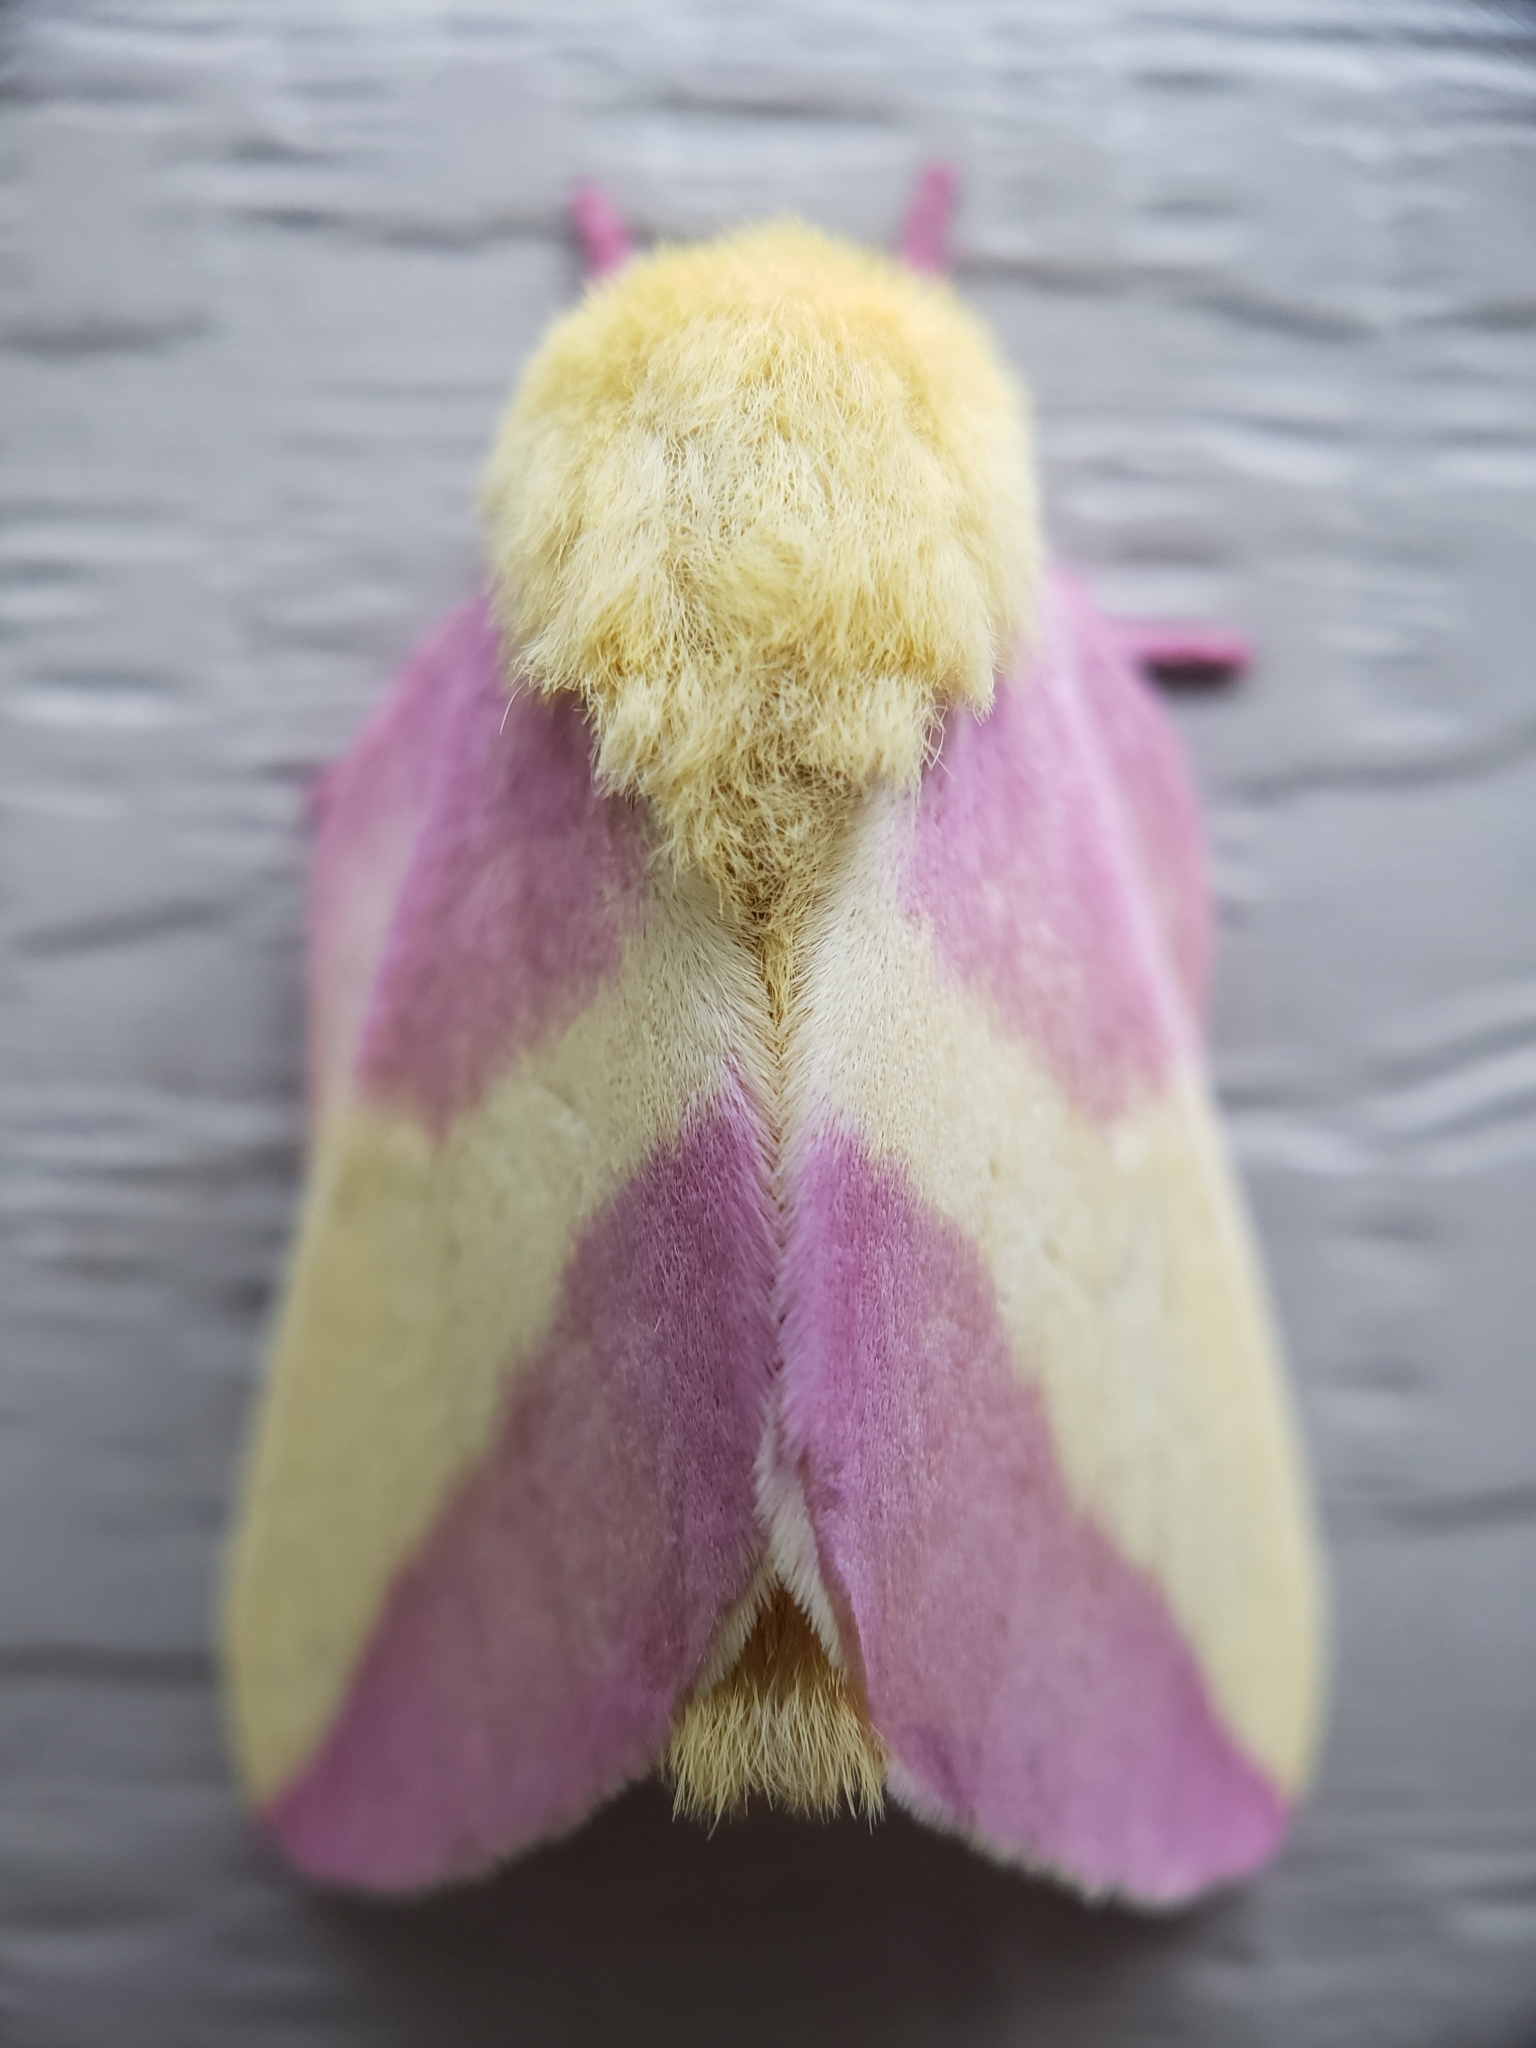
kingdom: Animalia
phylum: Arthropoda
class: Insecta
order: Lepidoptera
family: Saturniidae
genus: Dryocampa
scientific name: Dryocampa rubicunda
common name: Rosy maple moth
